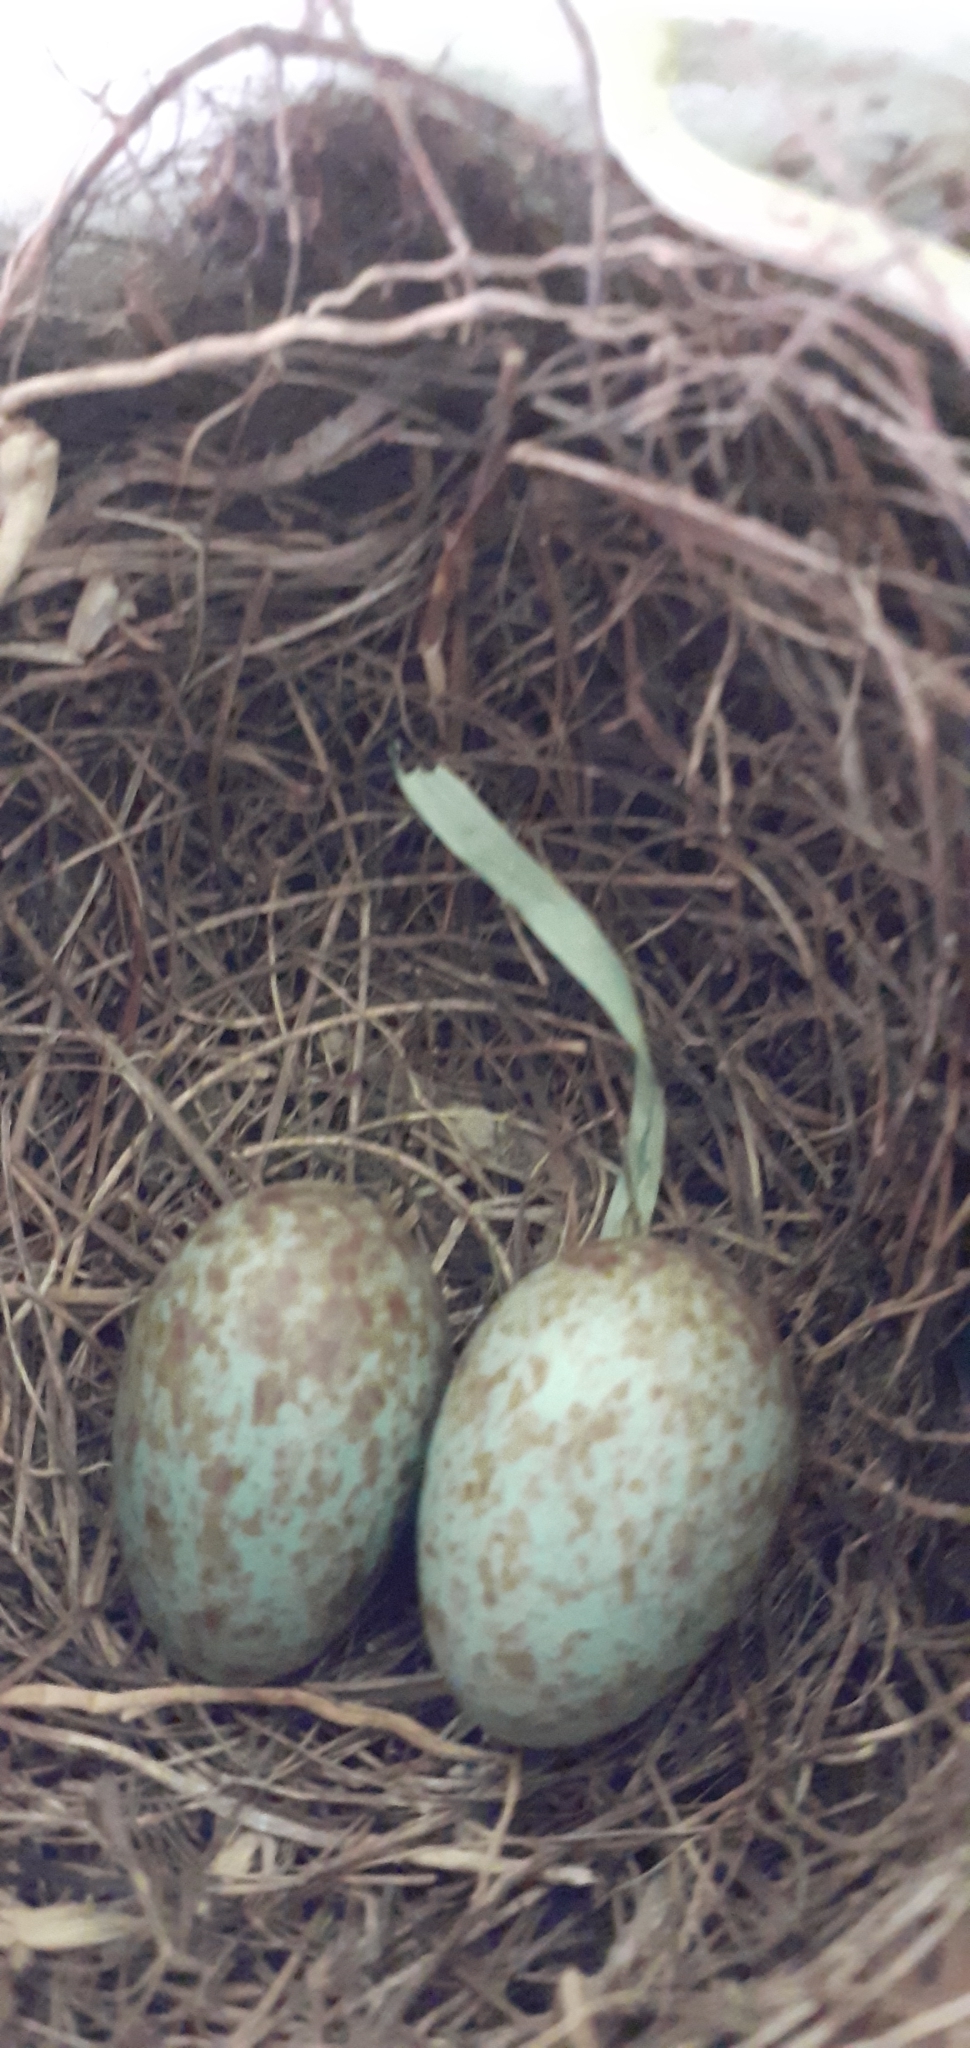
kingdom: Animalia
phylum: Chordata
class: Aves
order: Passeriformes
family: Turdidae
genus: Turdus
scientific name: Turdus rufiventris
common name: Rufous-bellied thrush
